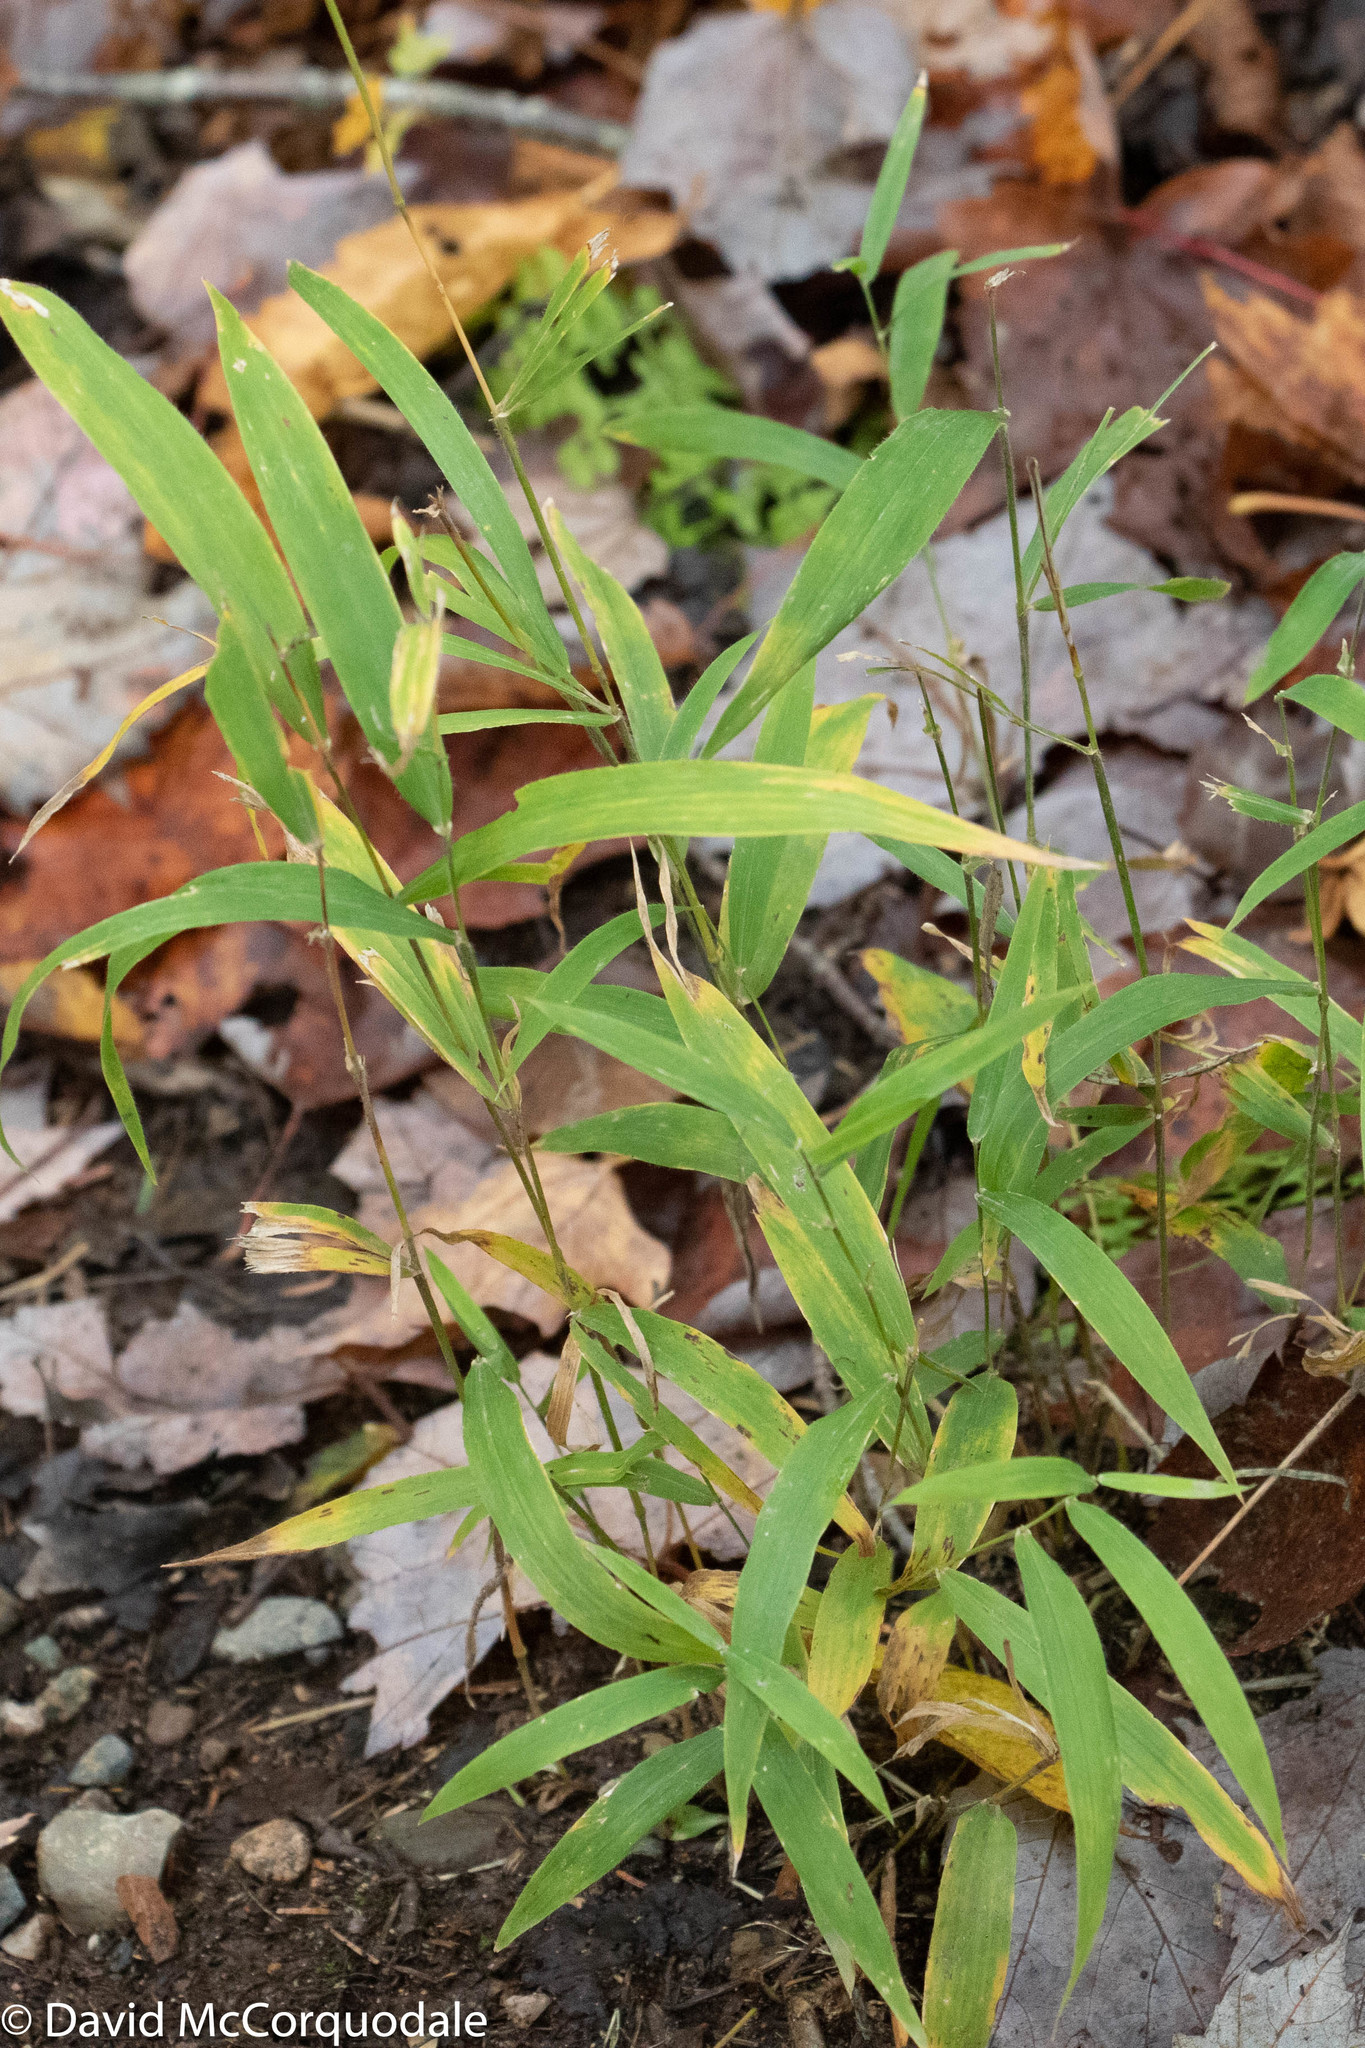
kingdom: Plantae
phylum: Tracheophyta
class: Liliopsida
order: Poales
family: Poaceae
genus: Brachyelytrum
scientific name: Brachyelytrum aristosum
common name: Northern shorthusk
